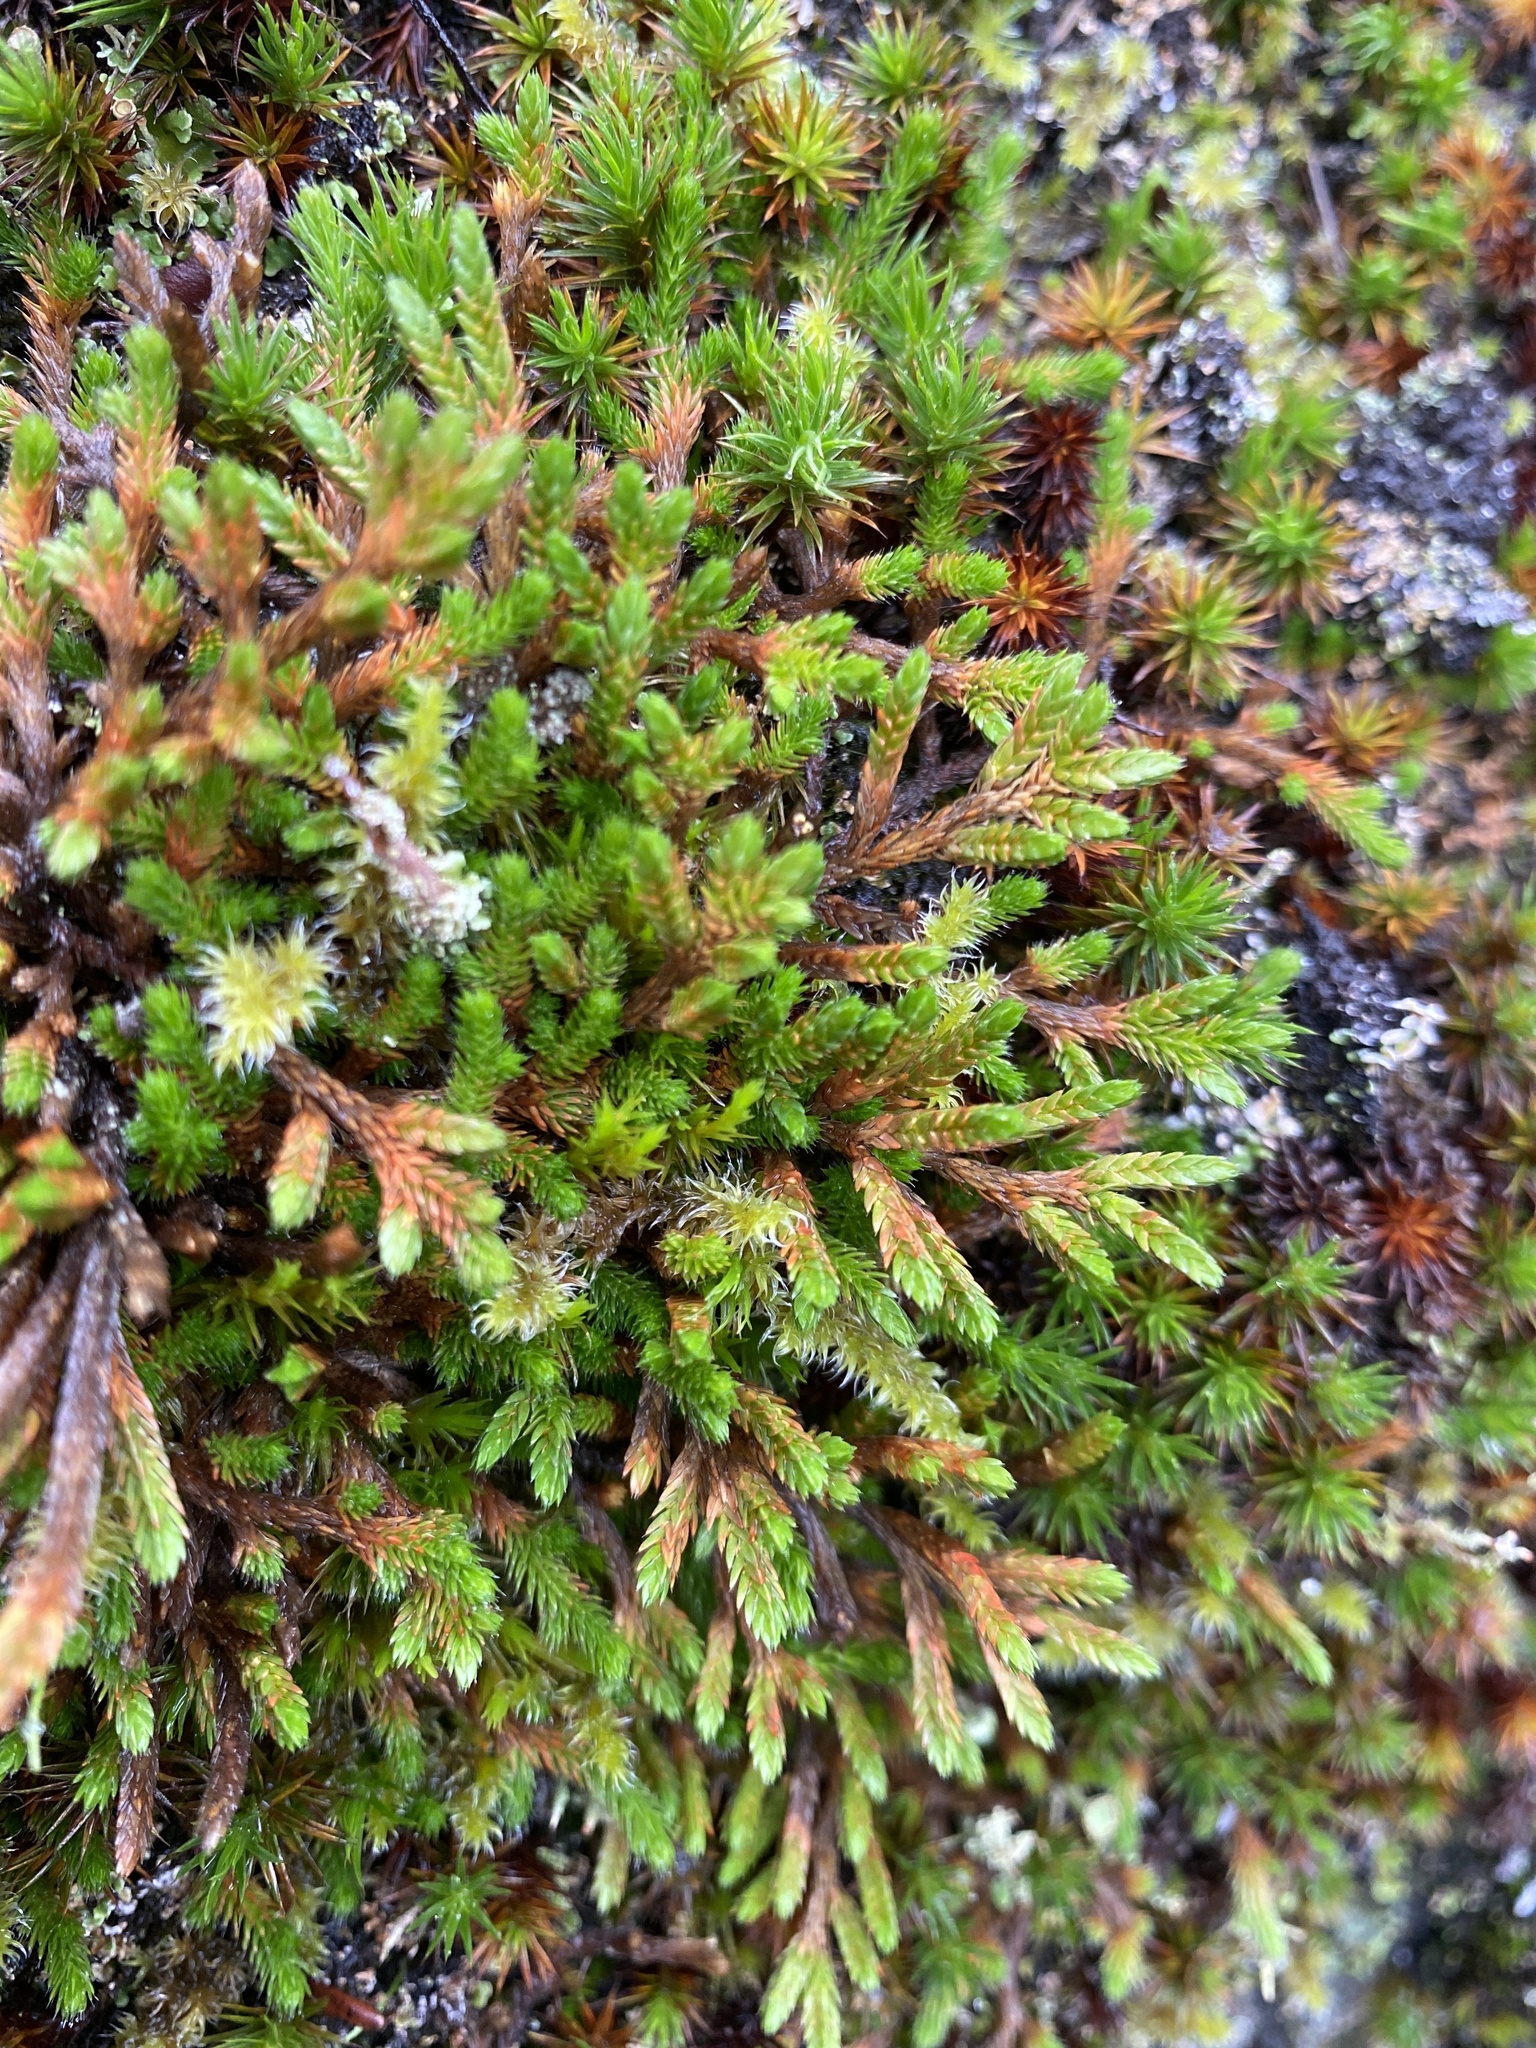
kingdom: Plantae
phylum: Tracheophyta
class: Lycopodiopsida
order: Selaginellales
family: Selaginellaceae
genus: Selaginella
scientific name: Selaginella wallacei
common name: Wallace's selaginella
